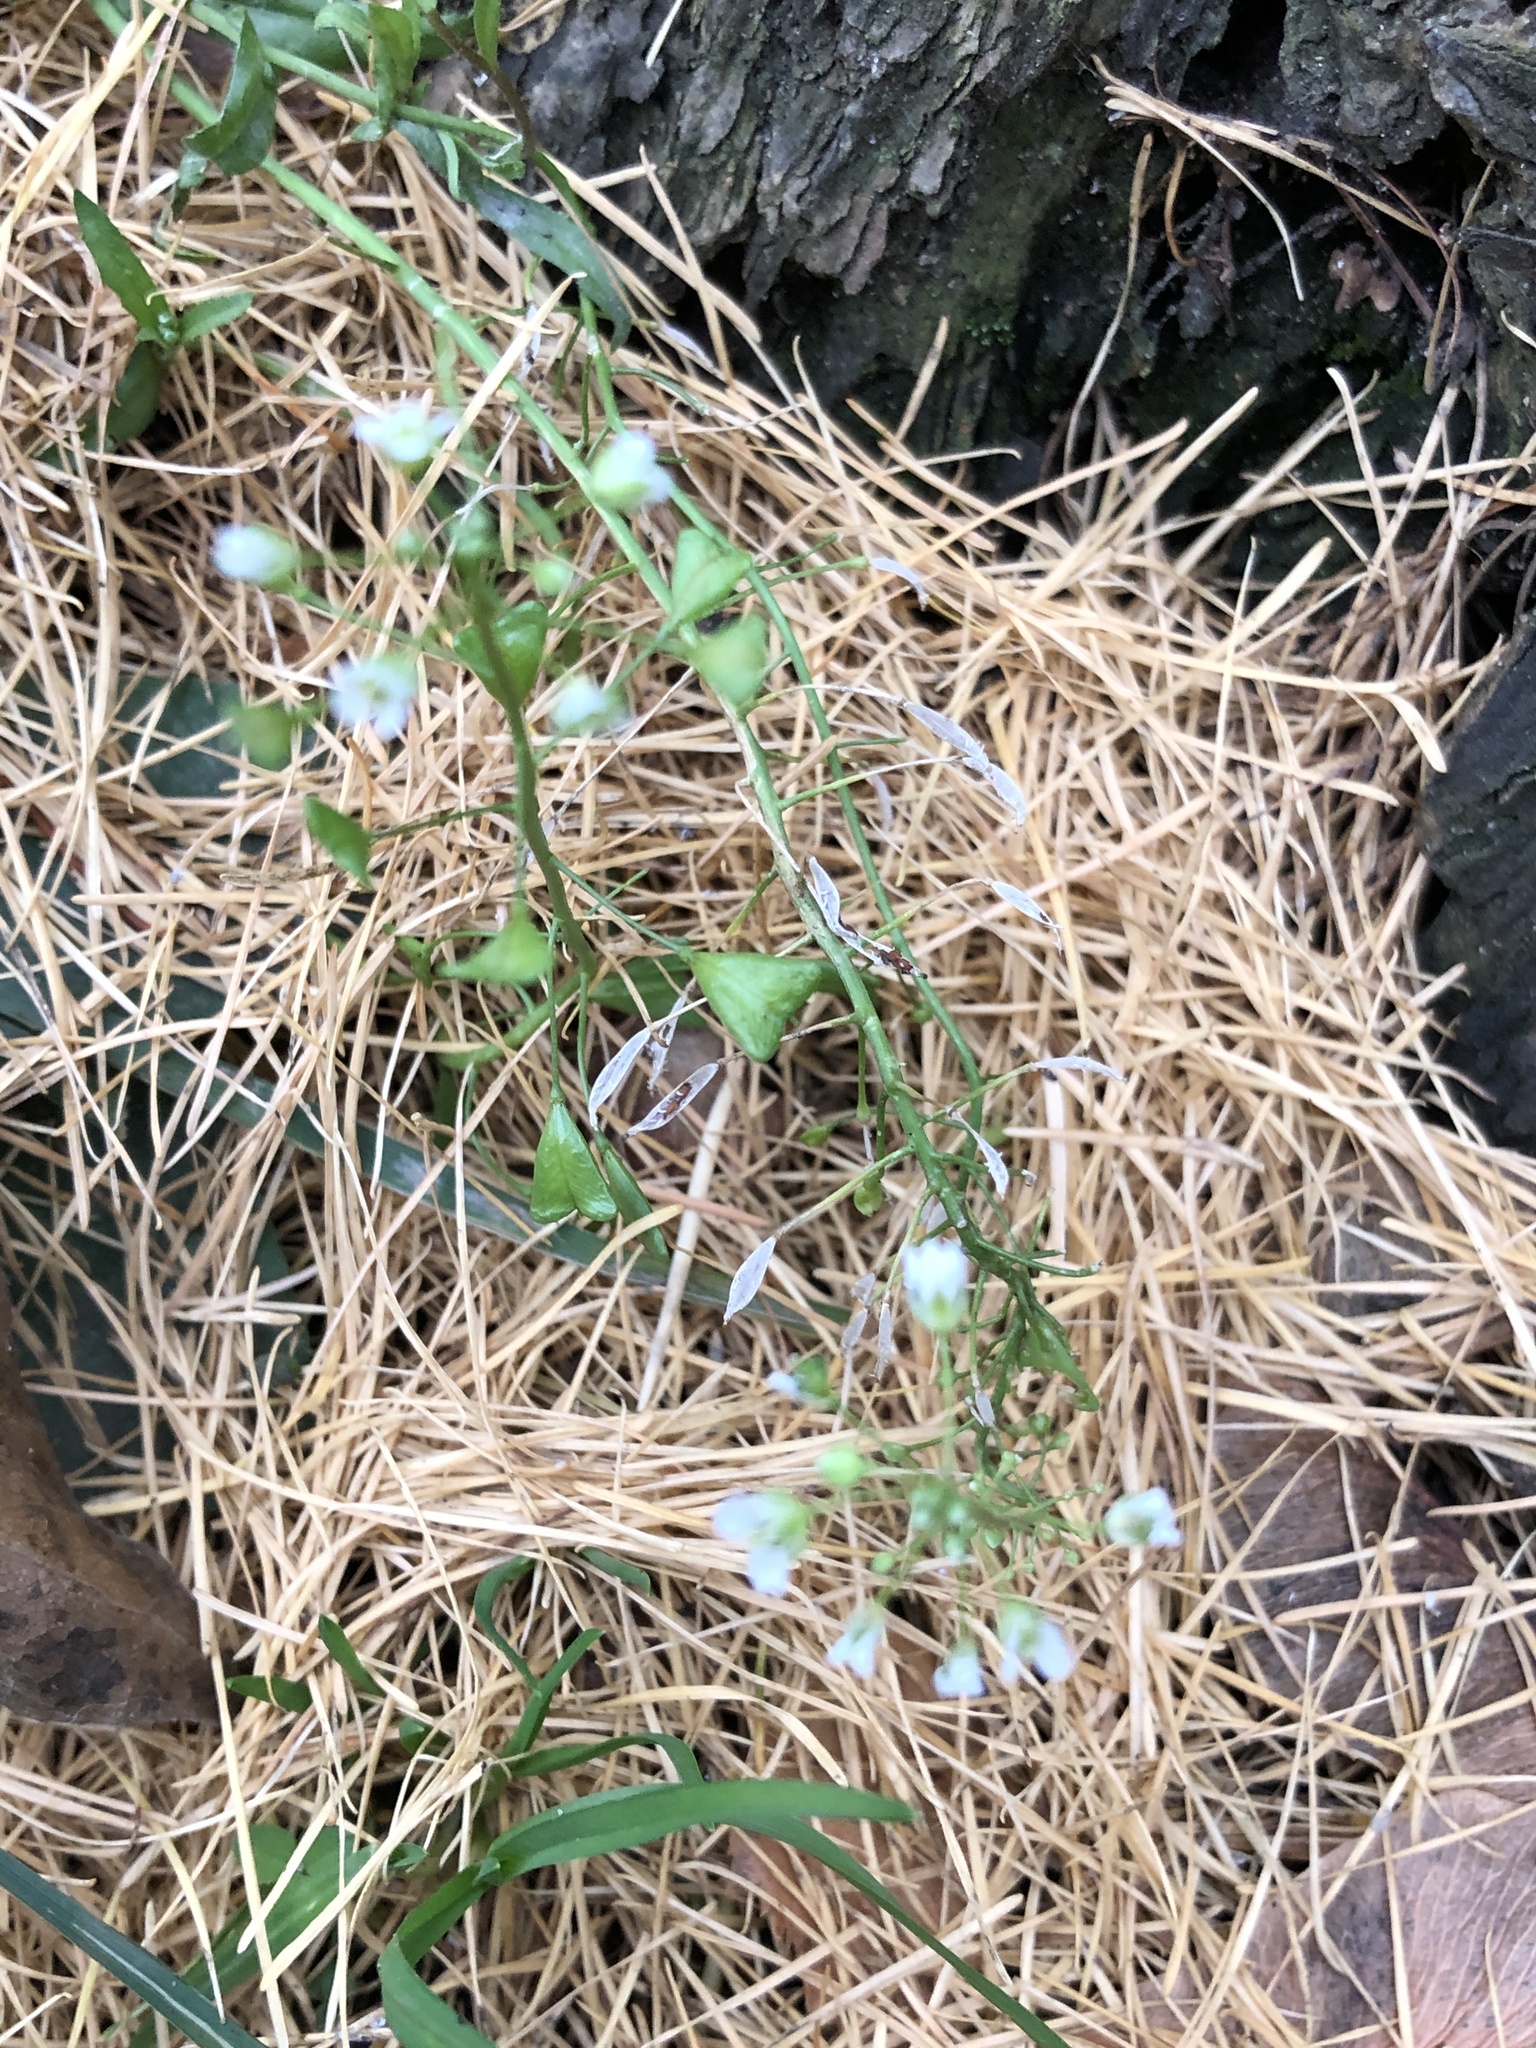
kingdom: Plantae
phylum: Tracheophyta
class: Magnoliopsida
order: Brassicales
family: Brassicaceae
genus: Capsella
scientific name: Capsella bursa-pastoris
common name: Shepherd's purse
